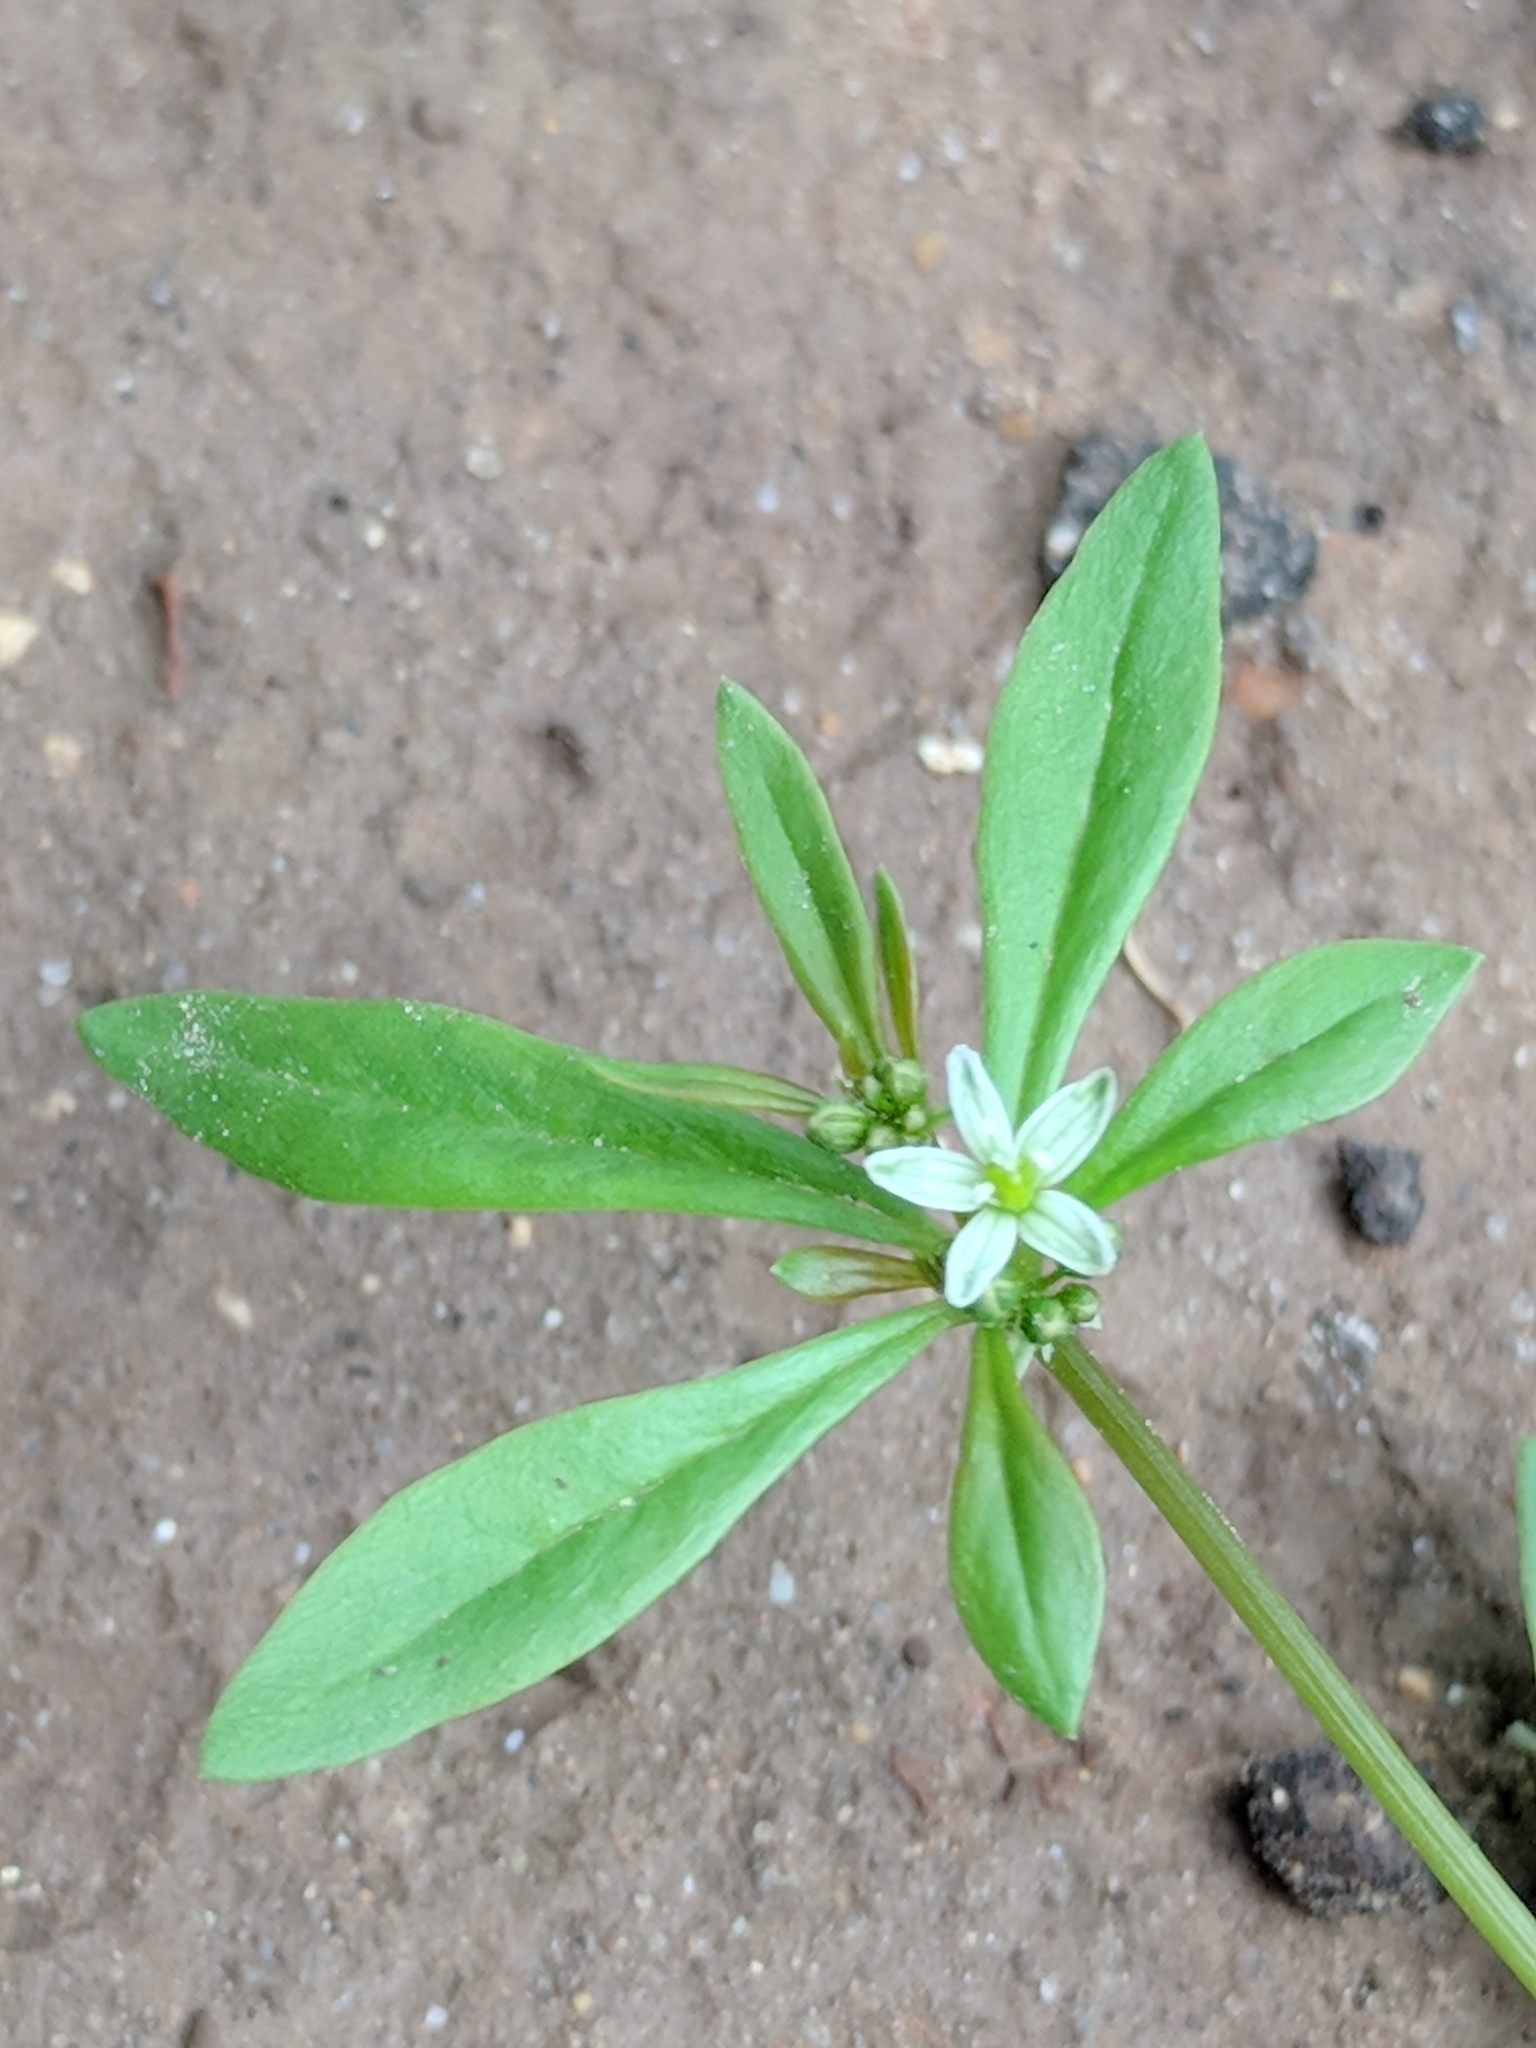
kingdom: Plantae
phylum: Tracheophyta
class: Magnoliopsida
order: Caryophyllales
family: Molluginaceae
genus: Mollugo
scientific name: Mollugo verticillata
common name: Green carpetweed
